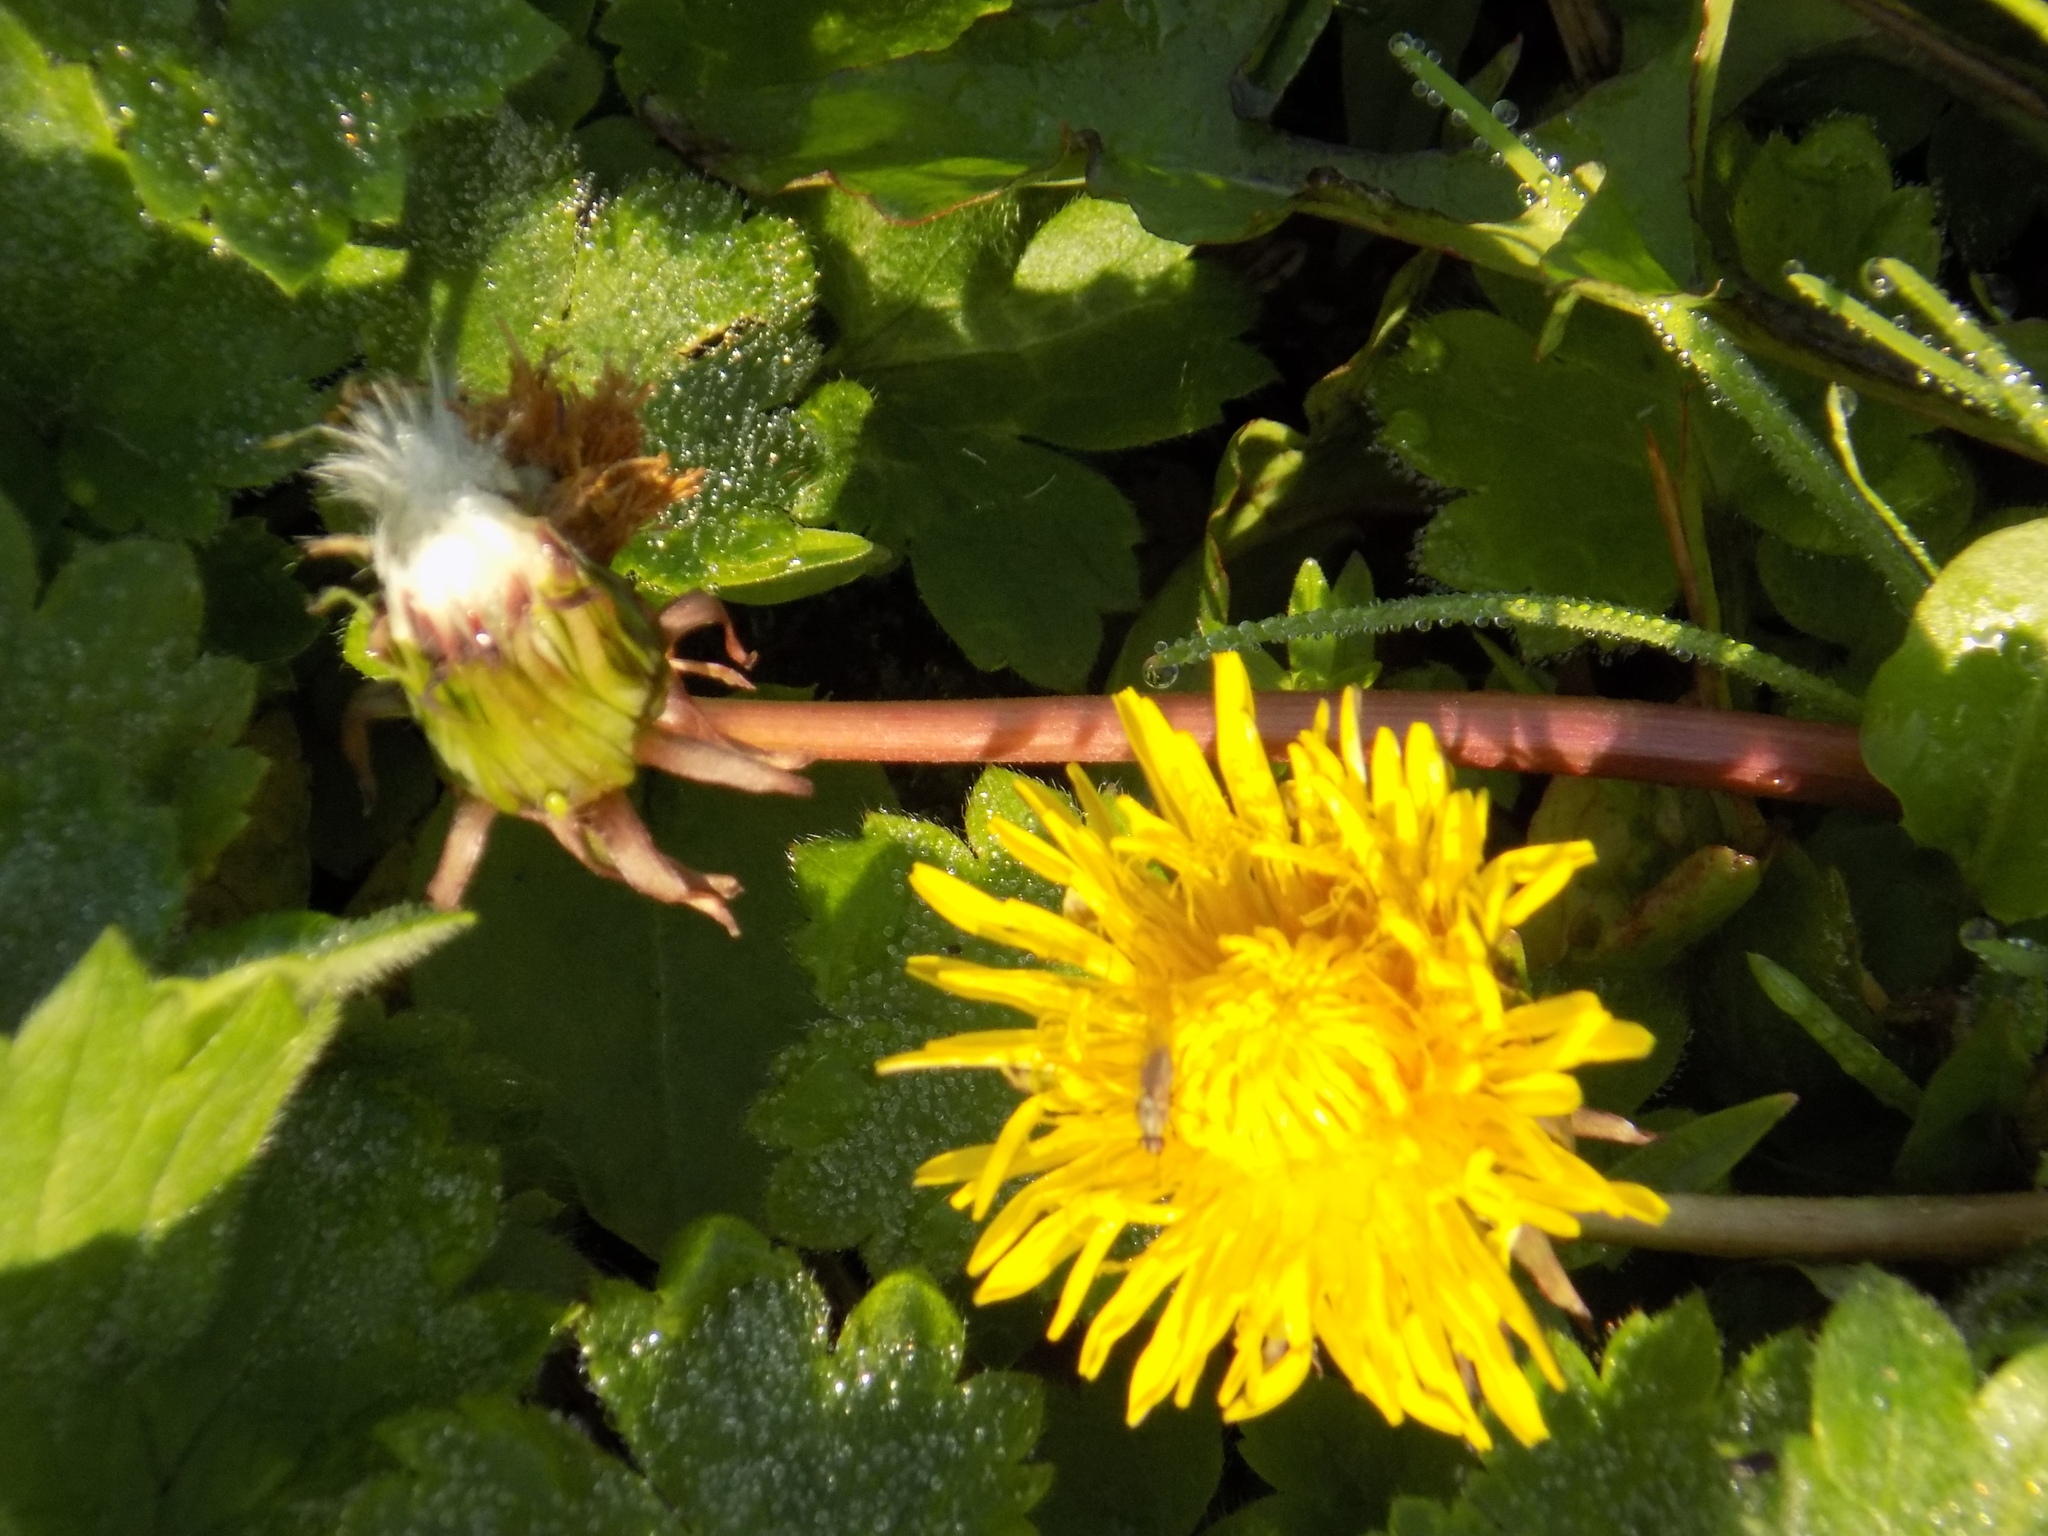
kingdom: Plantae
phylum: Tracheophyta
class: Magnoliopsida
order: Asterales
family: Asteraceae
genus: Taraxacum
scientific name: Taraxacum officinale
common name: Common dandelion
